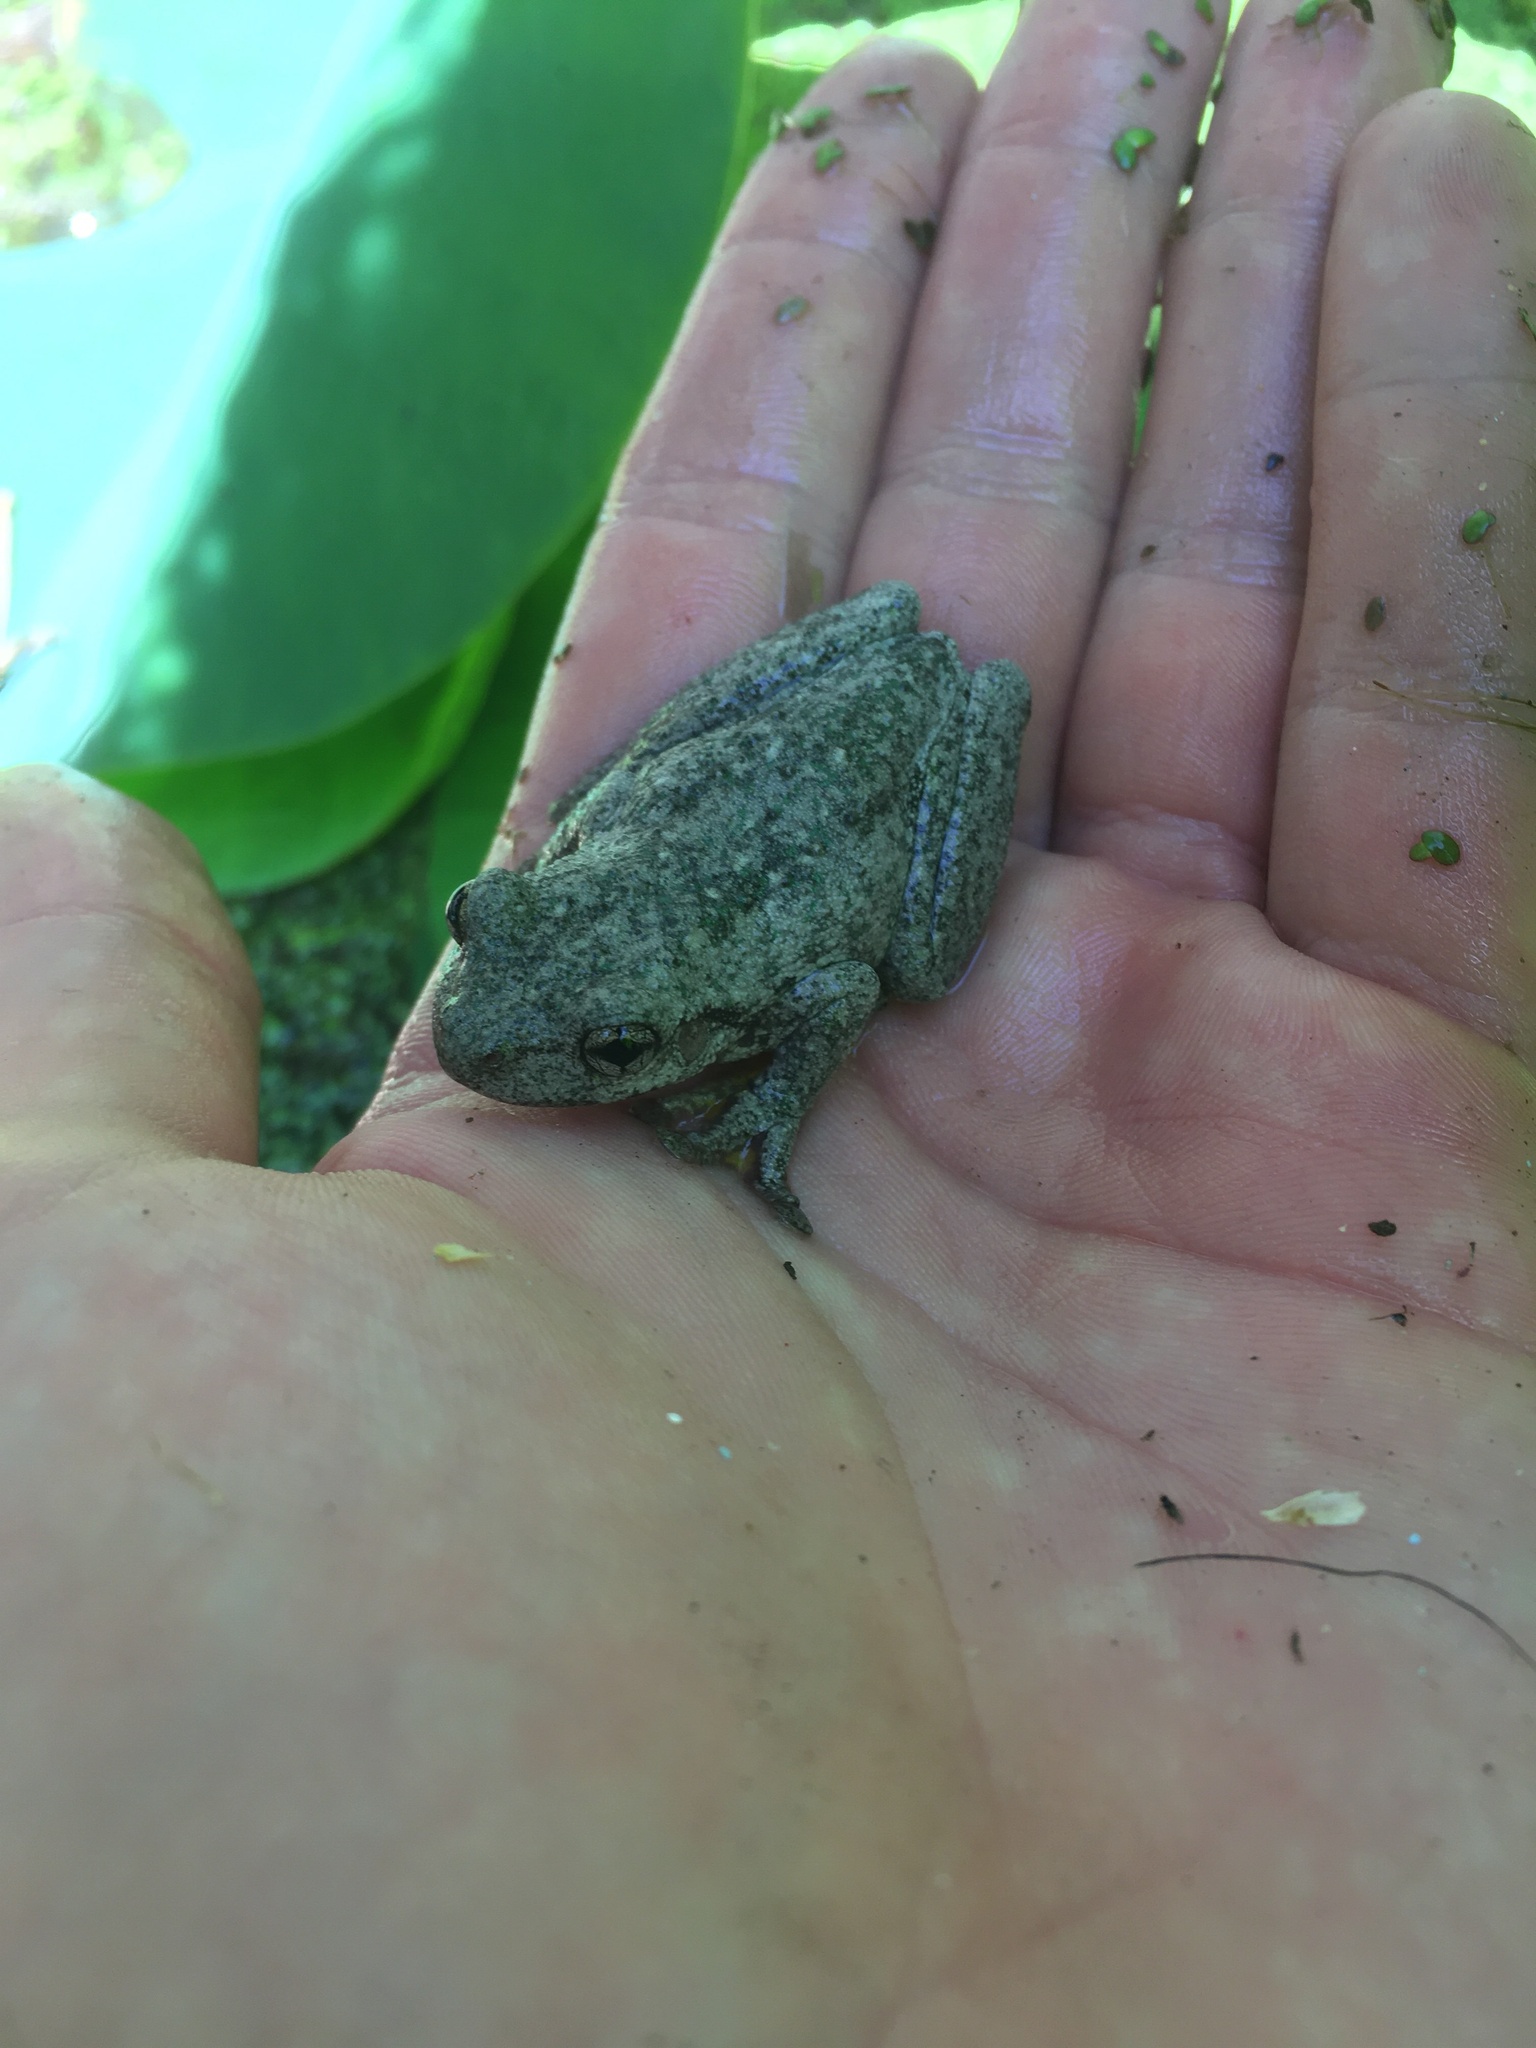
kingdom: Animalia
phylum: Chordata
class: Amphibia
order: Anura
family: Pelodryadidae
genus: Litoria
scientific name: Litoria peronii
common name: Emerald spotted treefrog
